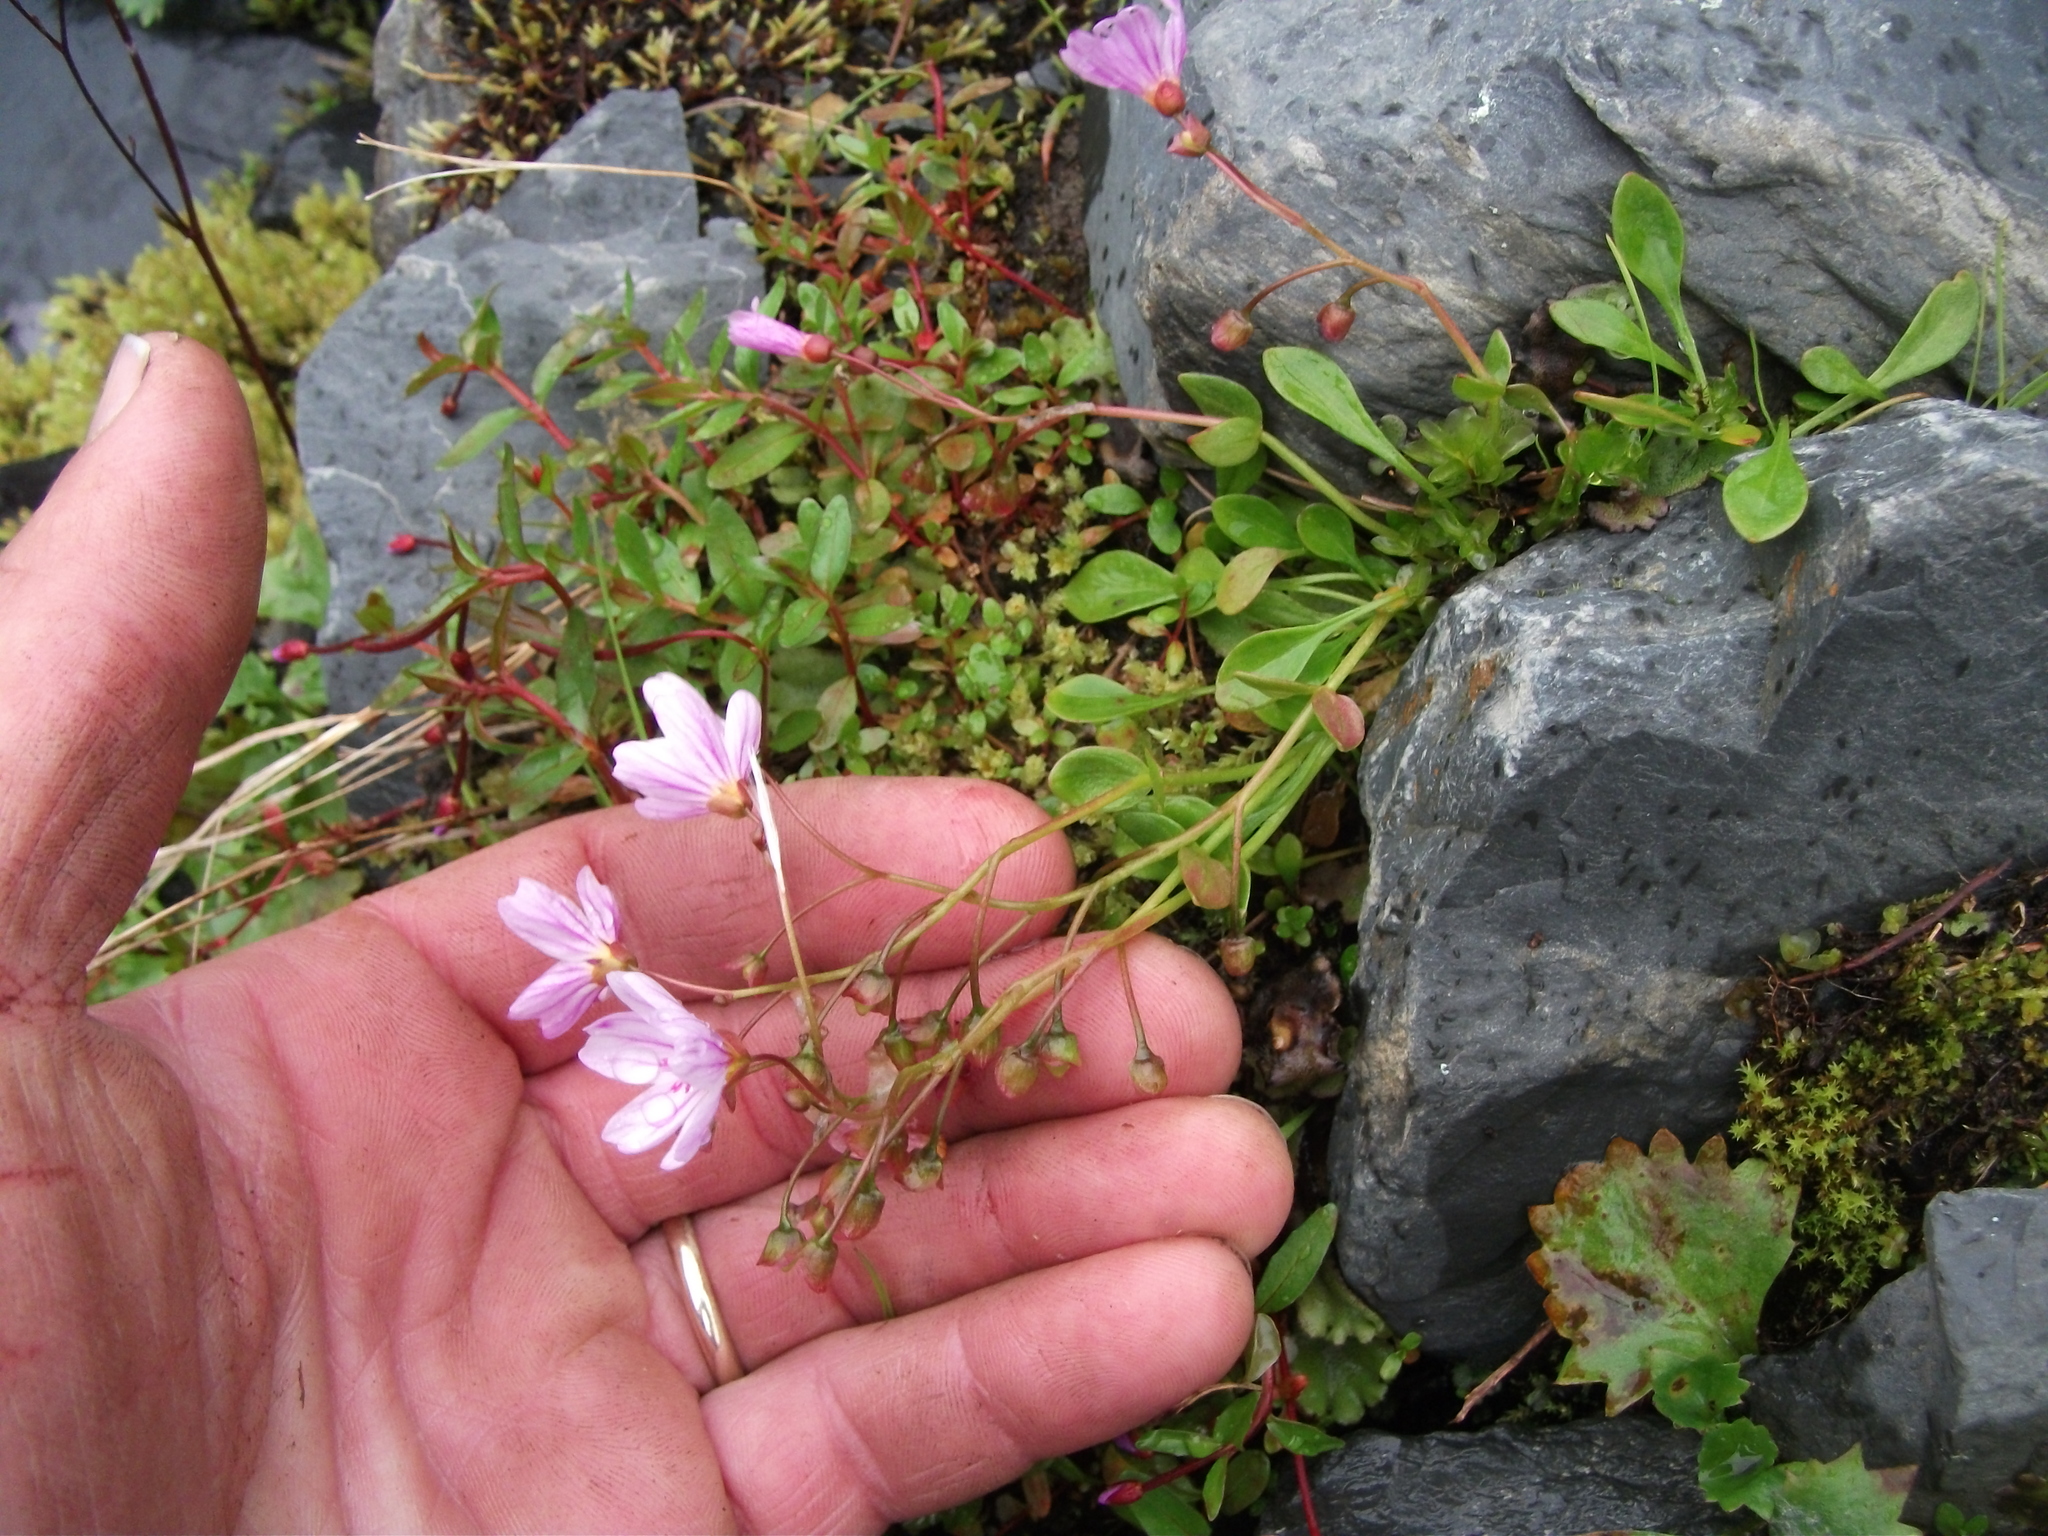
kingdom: Plantae
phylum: Tracheophyta
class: Magnoliopsida
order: Caryophyllales
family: Montiaceae
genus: Claytonia
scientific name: Claytonia sarmentosa
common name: Alaska spring beauty
